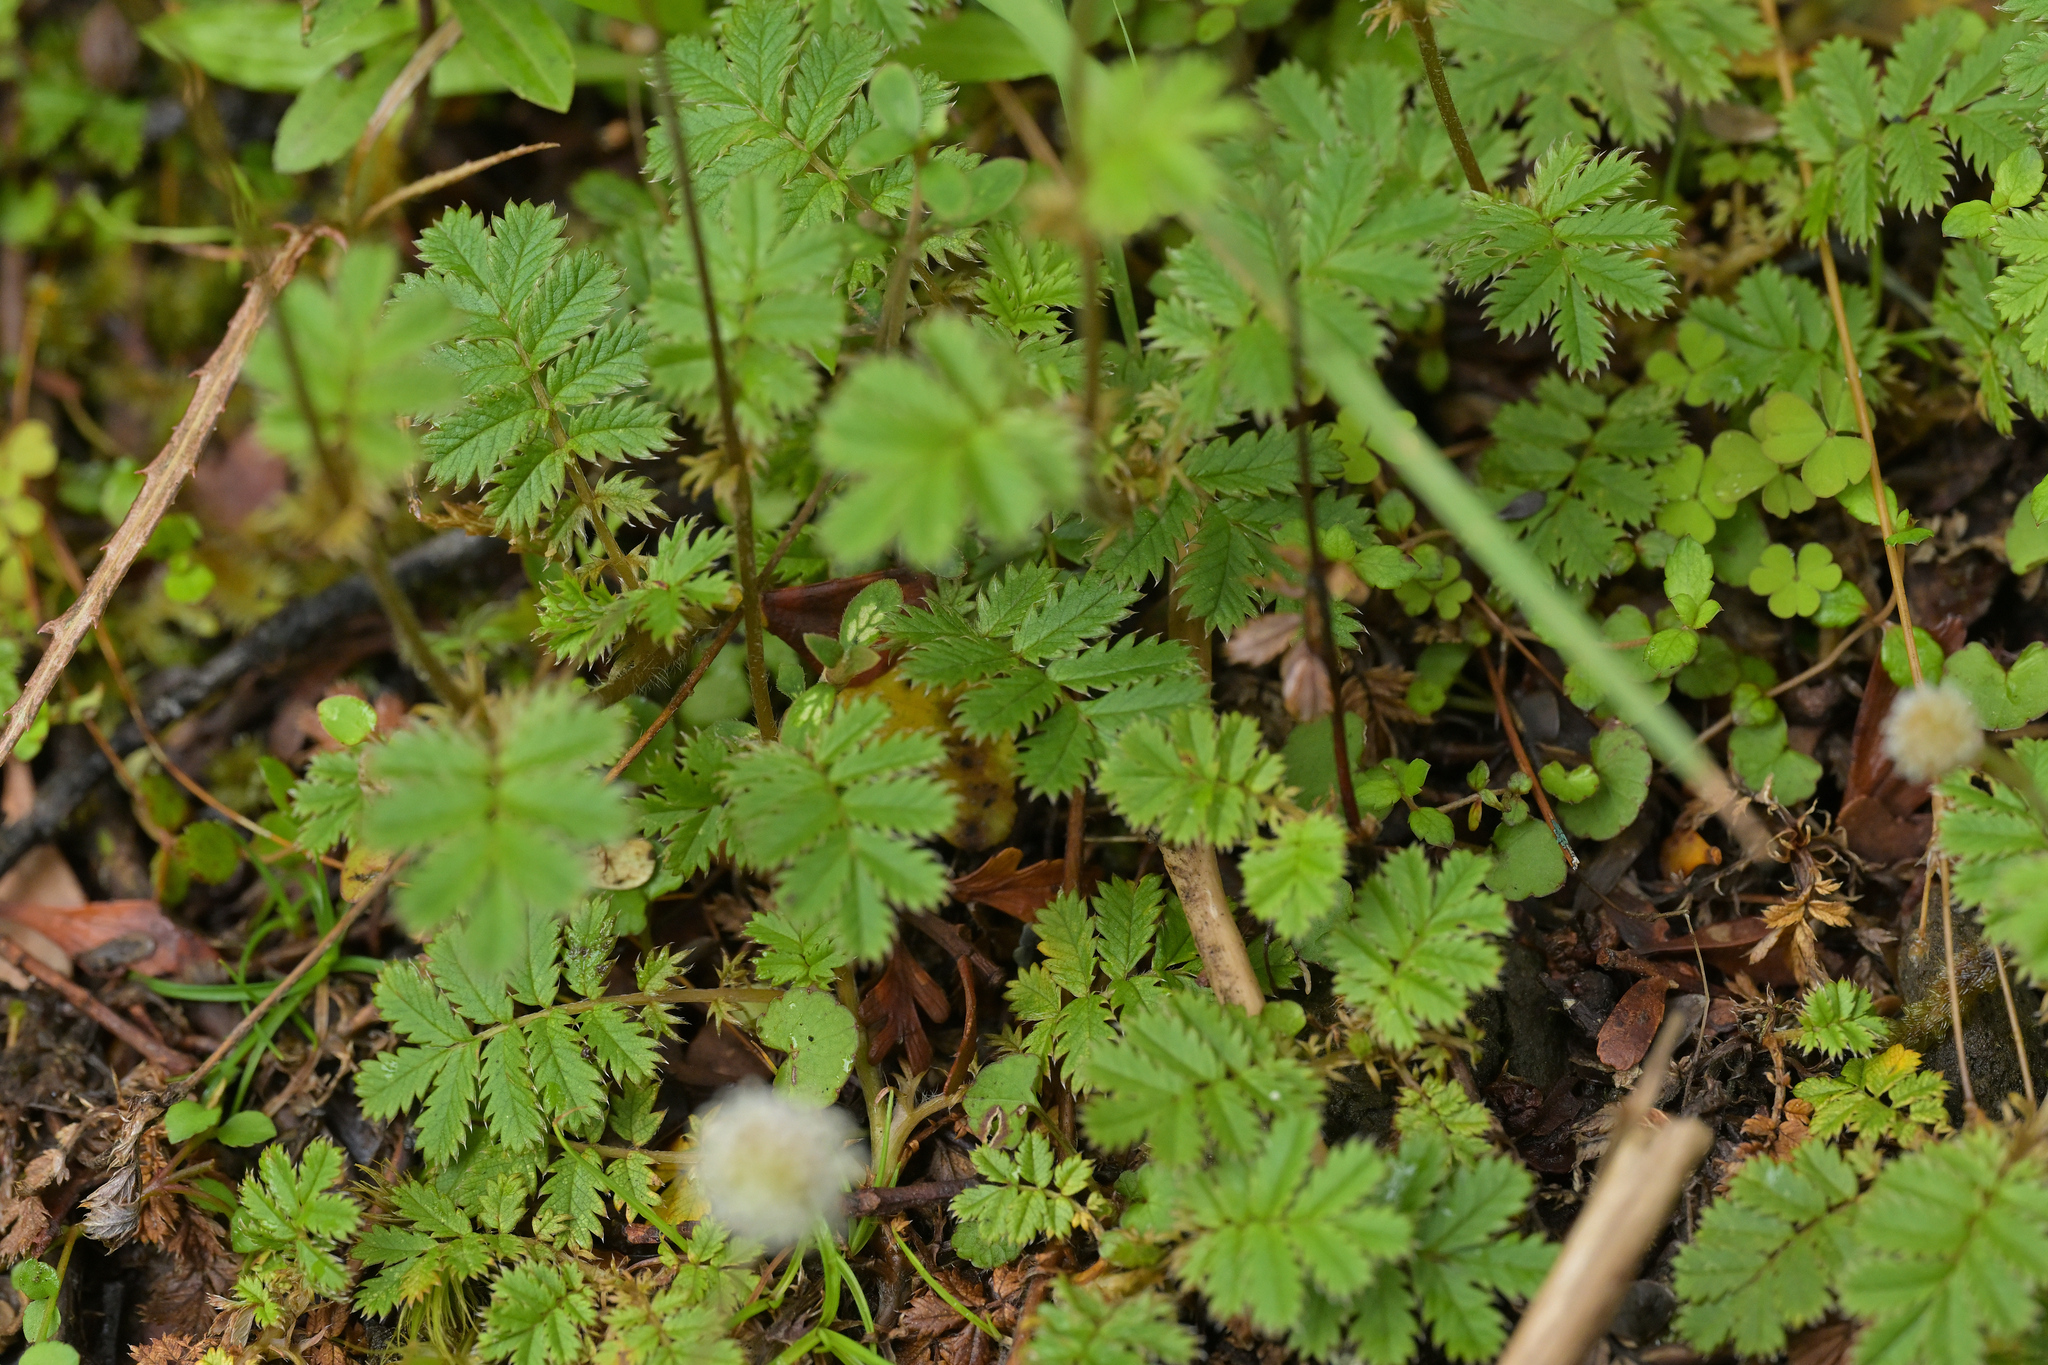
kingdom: Plantae
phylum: Tracheophyta
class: Magnoliopsida
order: Rosales
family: Rosaceae
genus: Acaena
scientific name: Acaena anserinifolia
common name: Bronze pirri-pirri-bur
